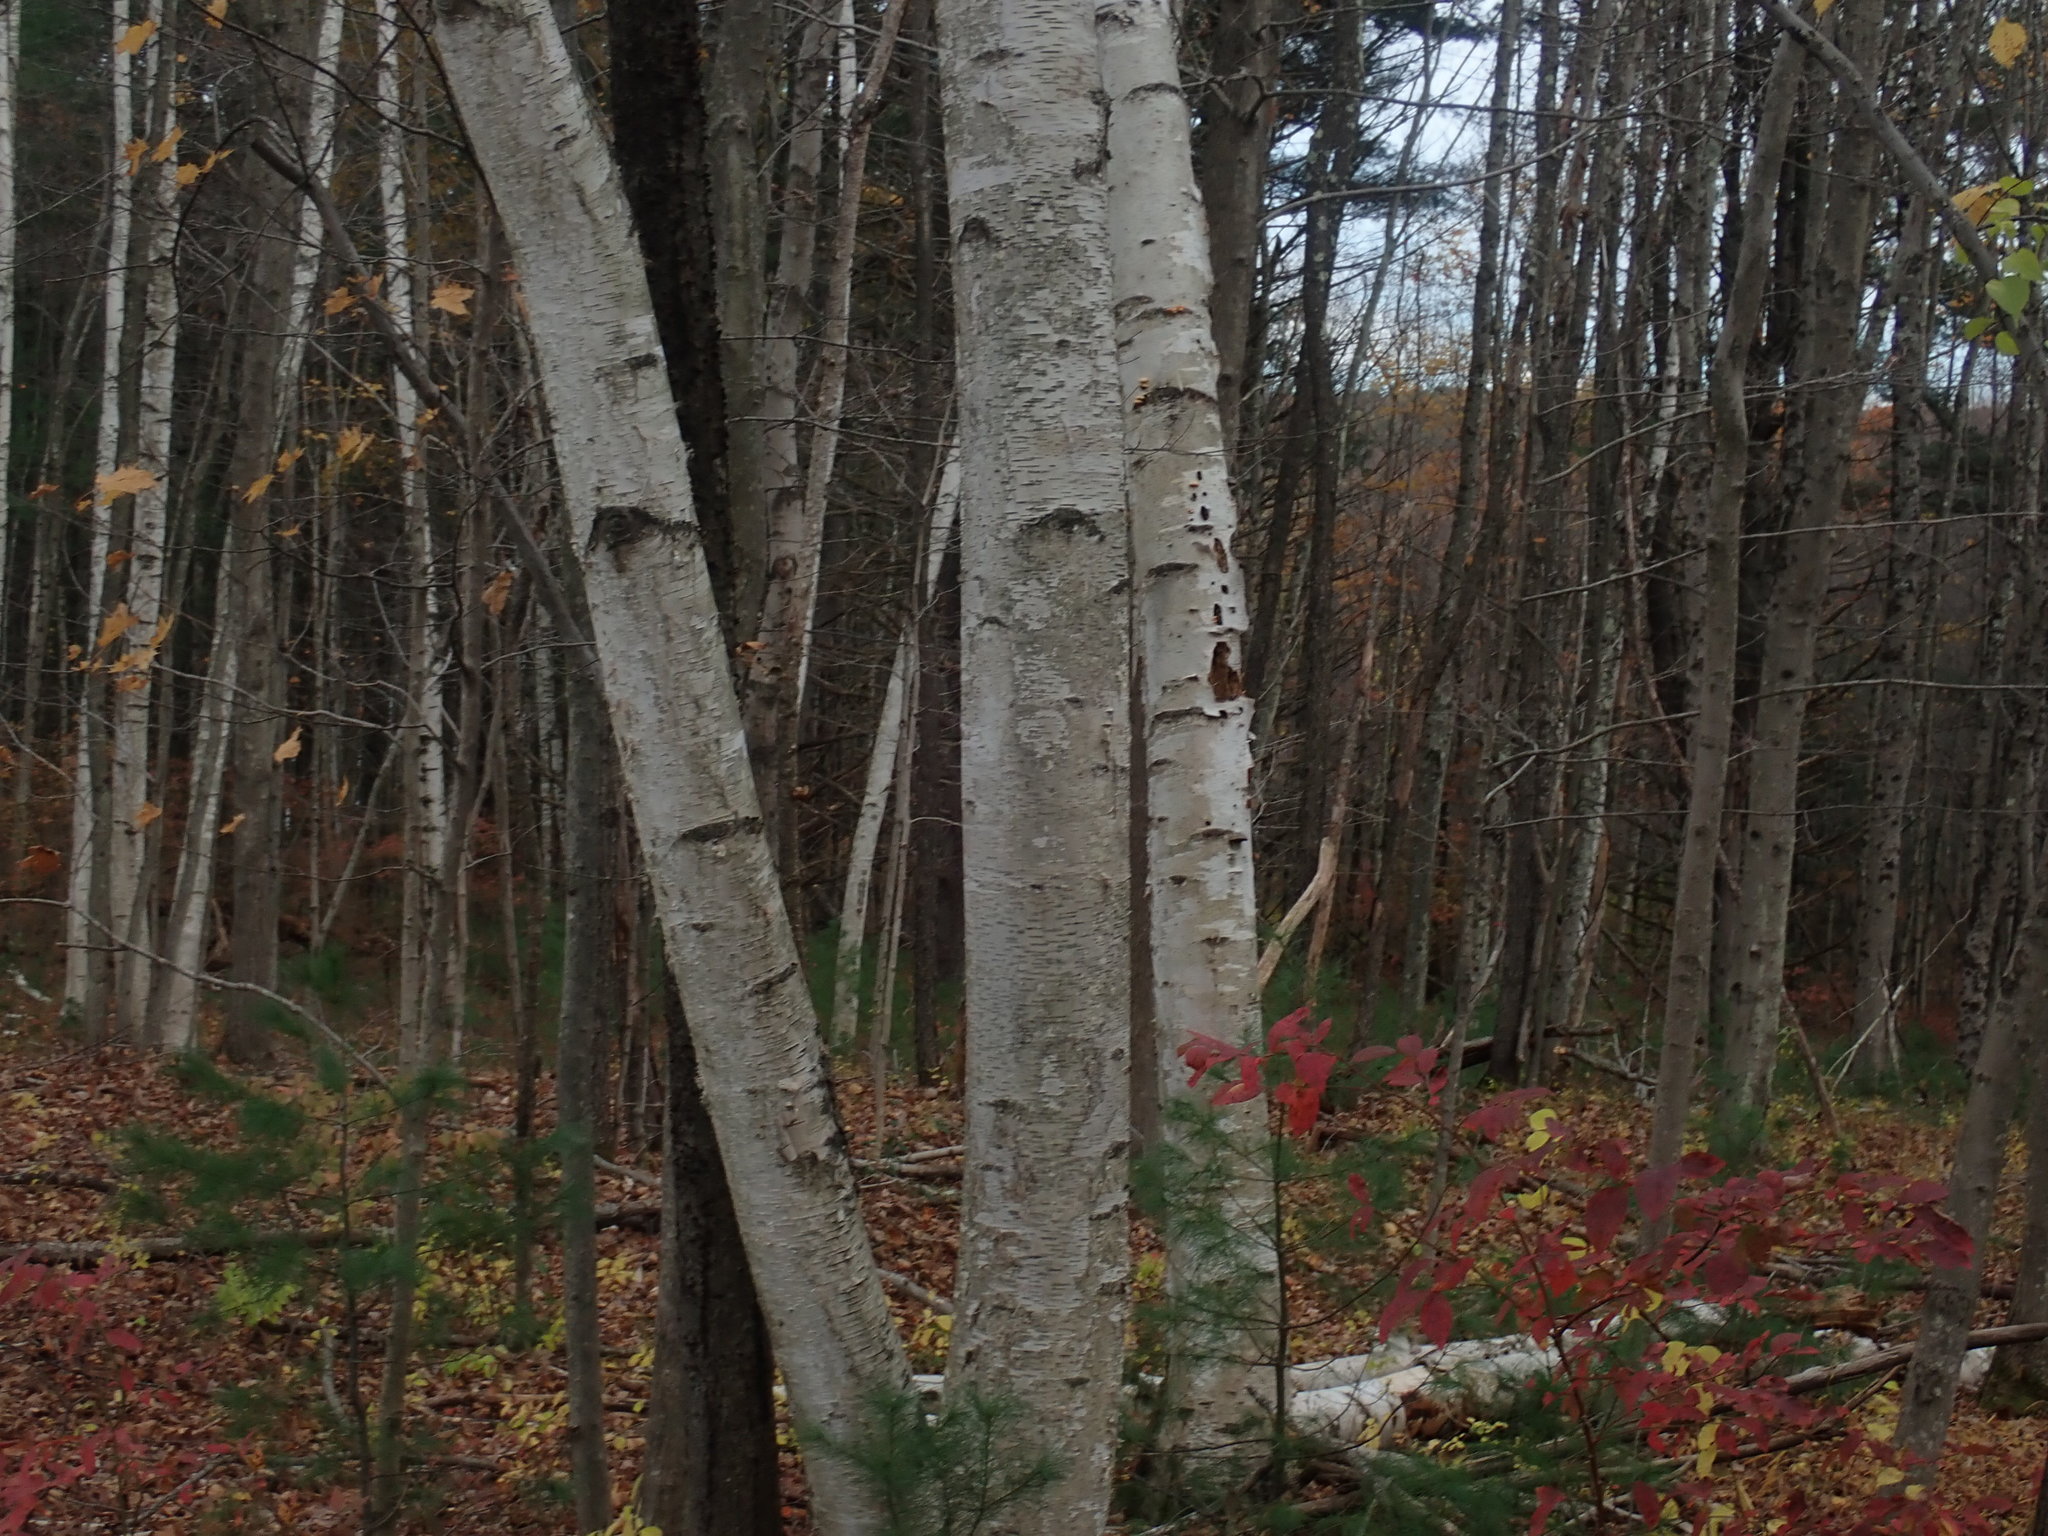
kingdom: Plantae
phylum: Tracheophyta
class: Magnoliopsida
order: Fagales
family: Betulaceae
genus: Betula
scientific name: Betula papyrifera
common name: Paper birch
